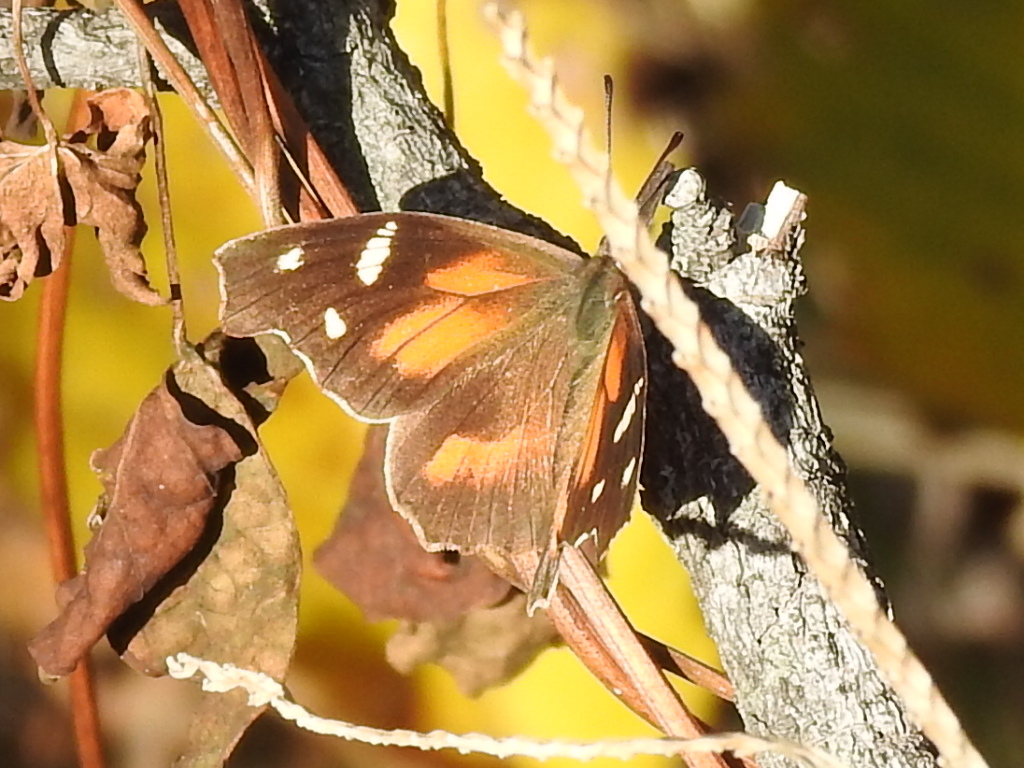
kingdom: Animalia
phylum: Arthropoda
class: Insecta
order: Lepidoptera
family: Nymphalidae
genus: Libytheana
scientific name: Libytheana carinenta
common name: American snout
